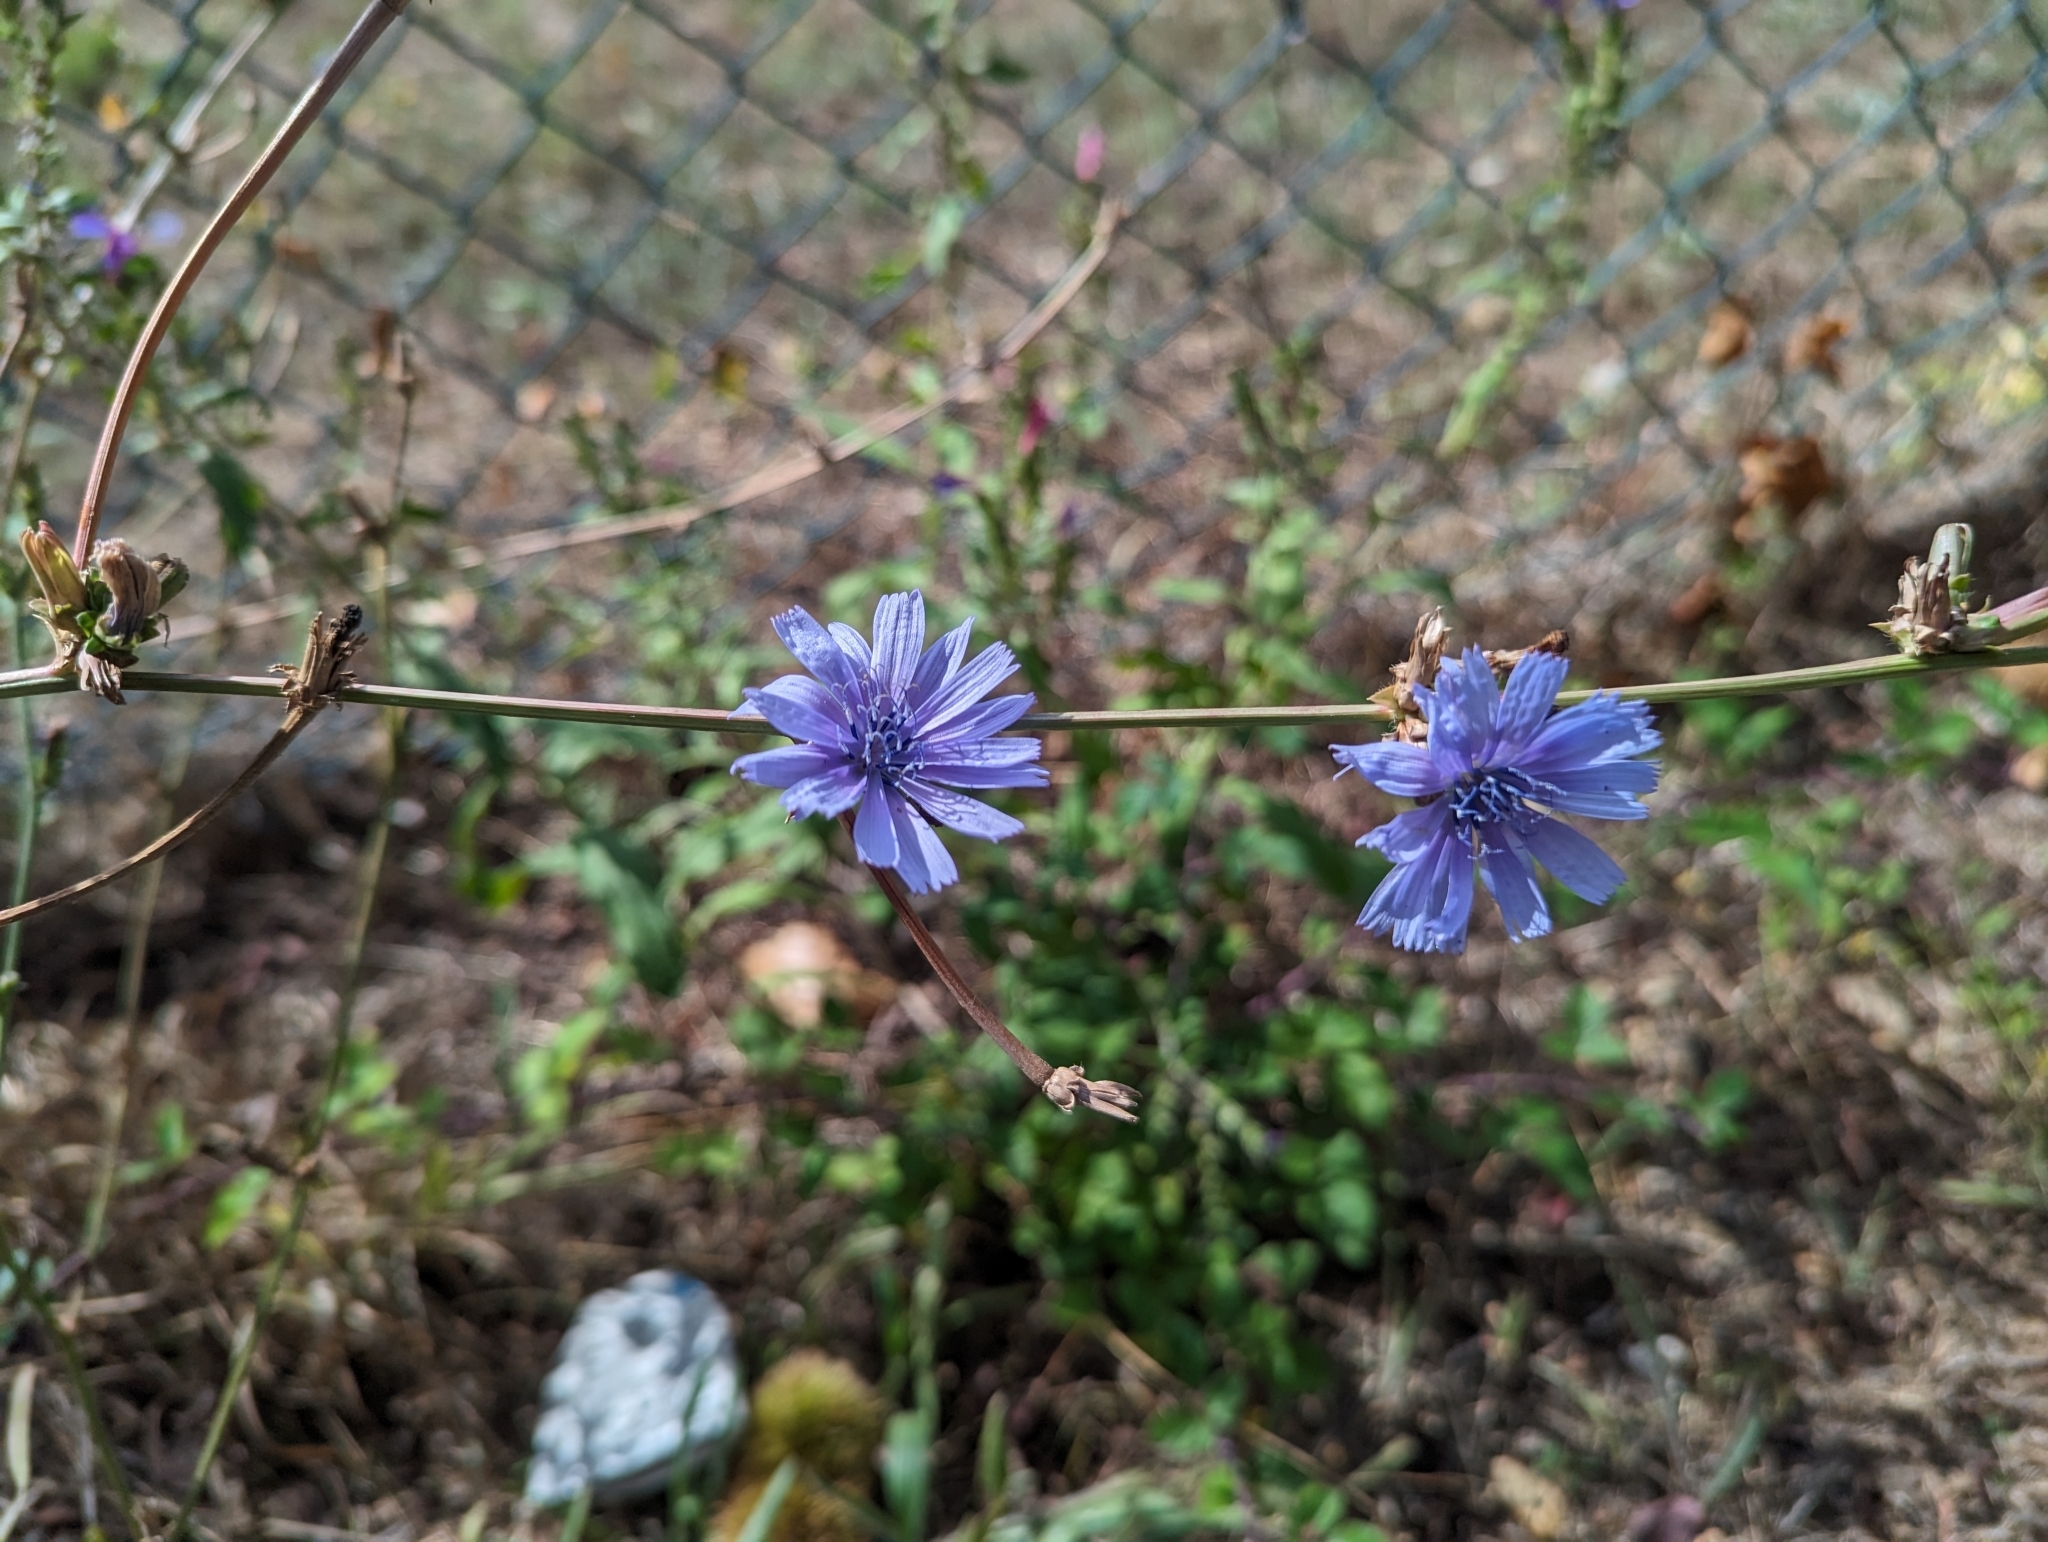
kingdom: Plantae
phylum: Tracheophyta
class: Magnoliopsida
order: Asterales
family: Asteraceae
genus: Cichorium
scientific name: Cichorium intybus
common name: Chicory
